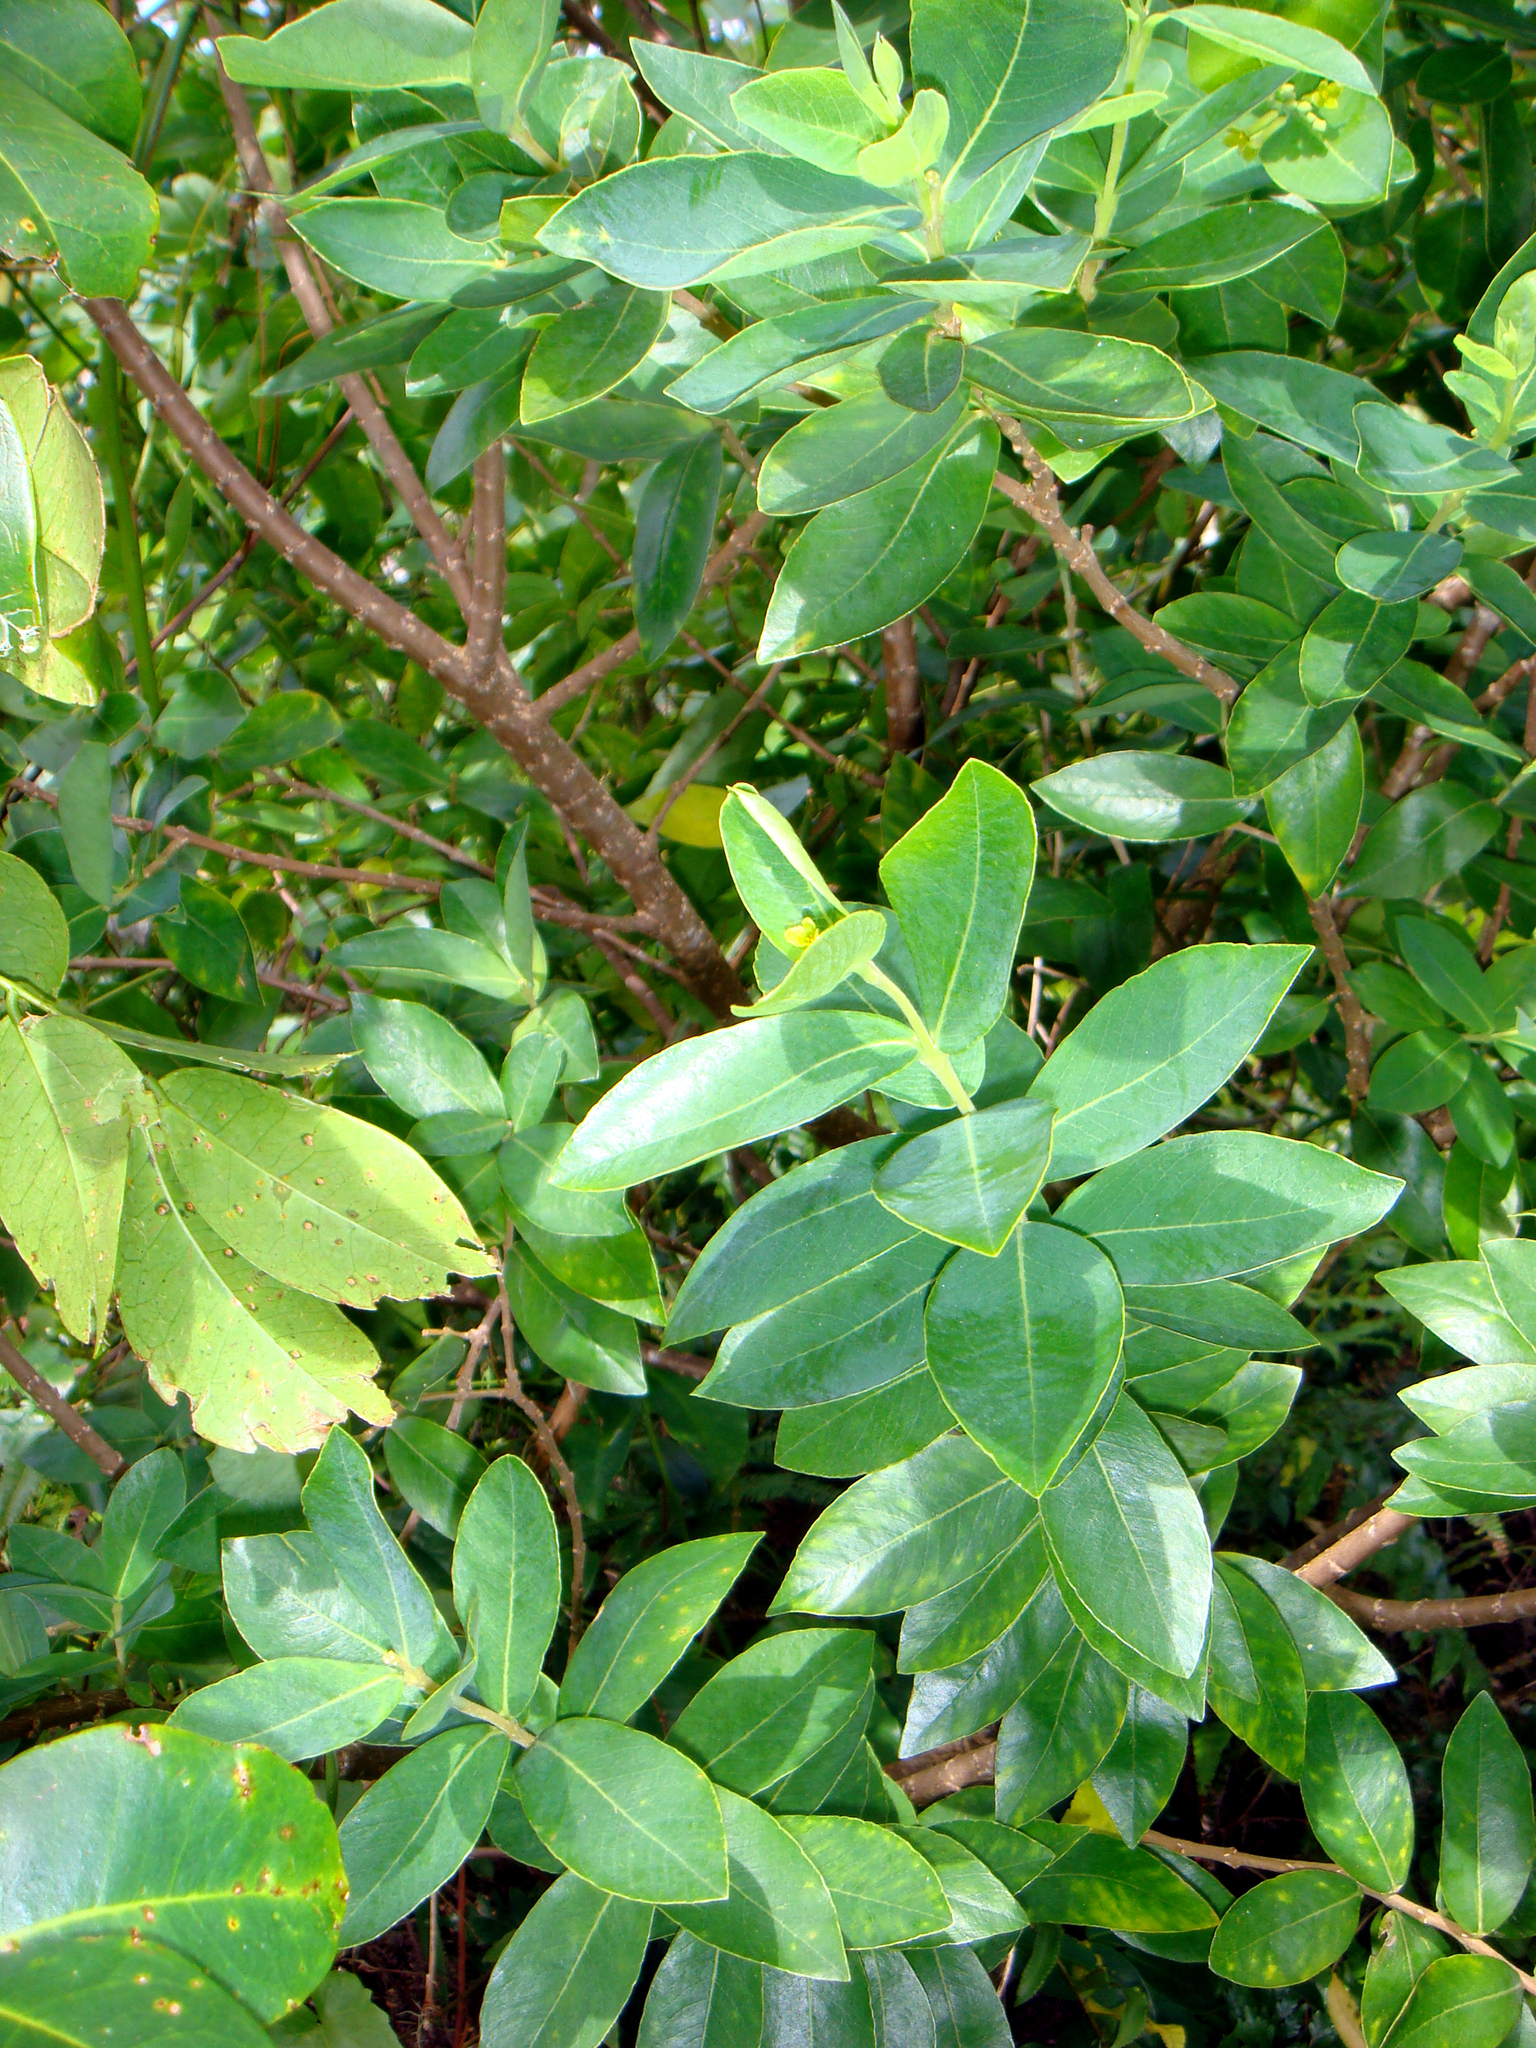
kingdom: Plantae
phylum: Tracheophyta
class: Magnoliopsida
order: Malvales
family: Thymelaeaceae
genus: Wikstroemia
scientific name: Wikstroemia indica
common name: Tiebush
